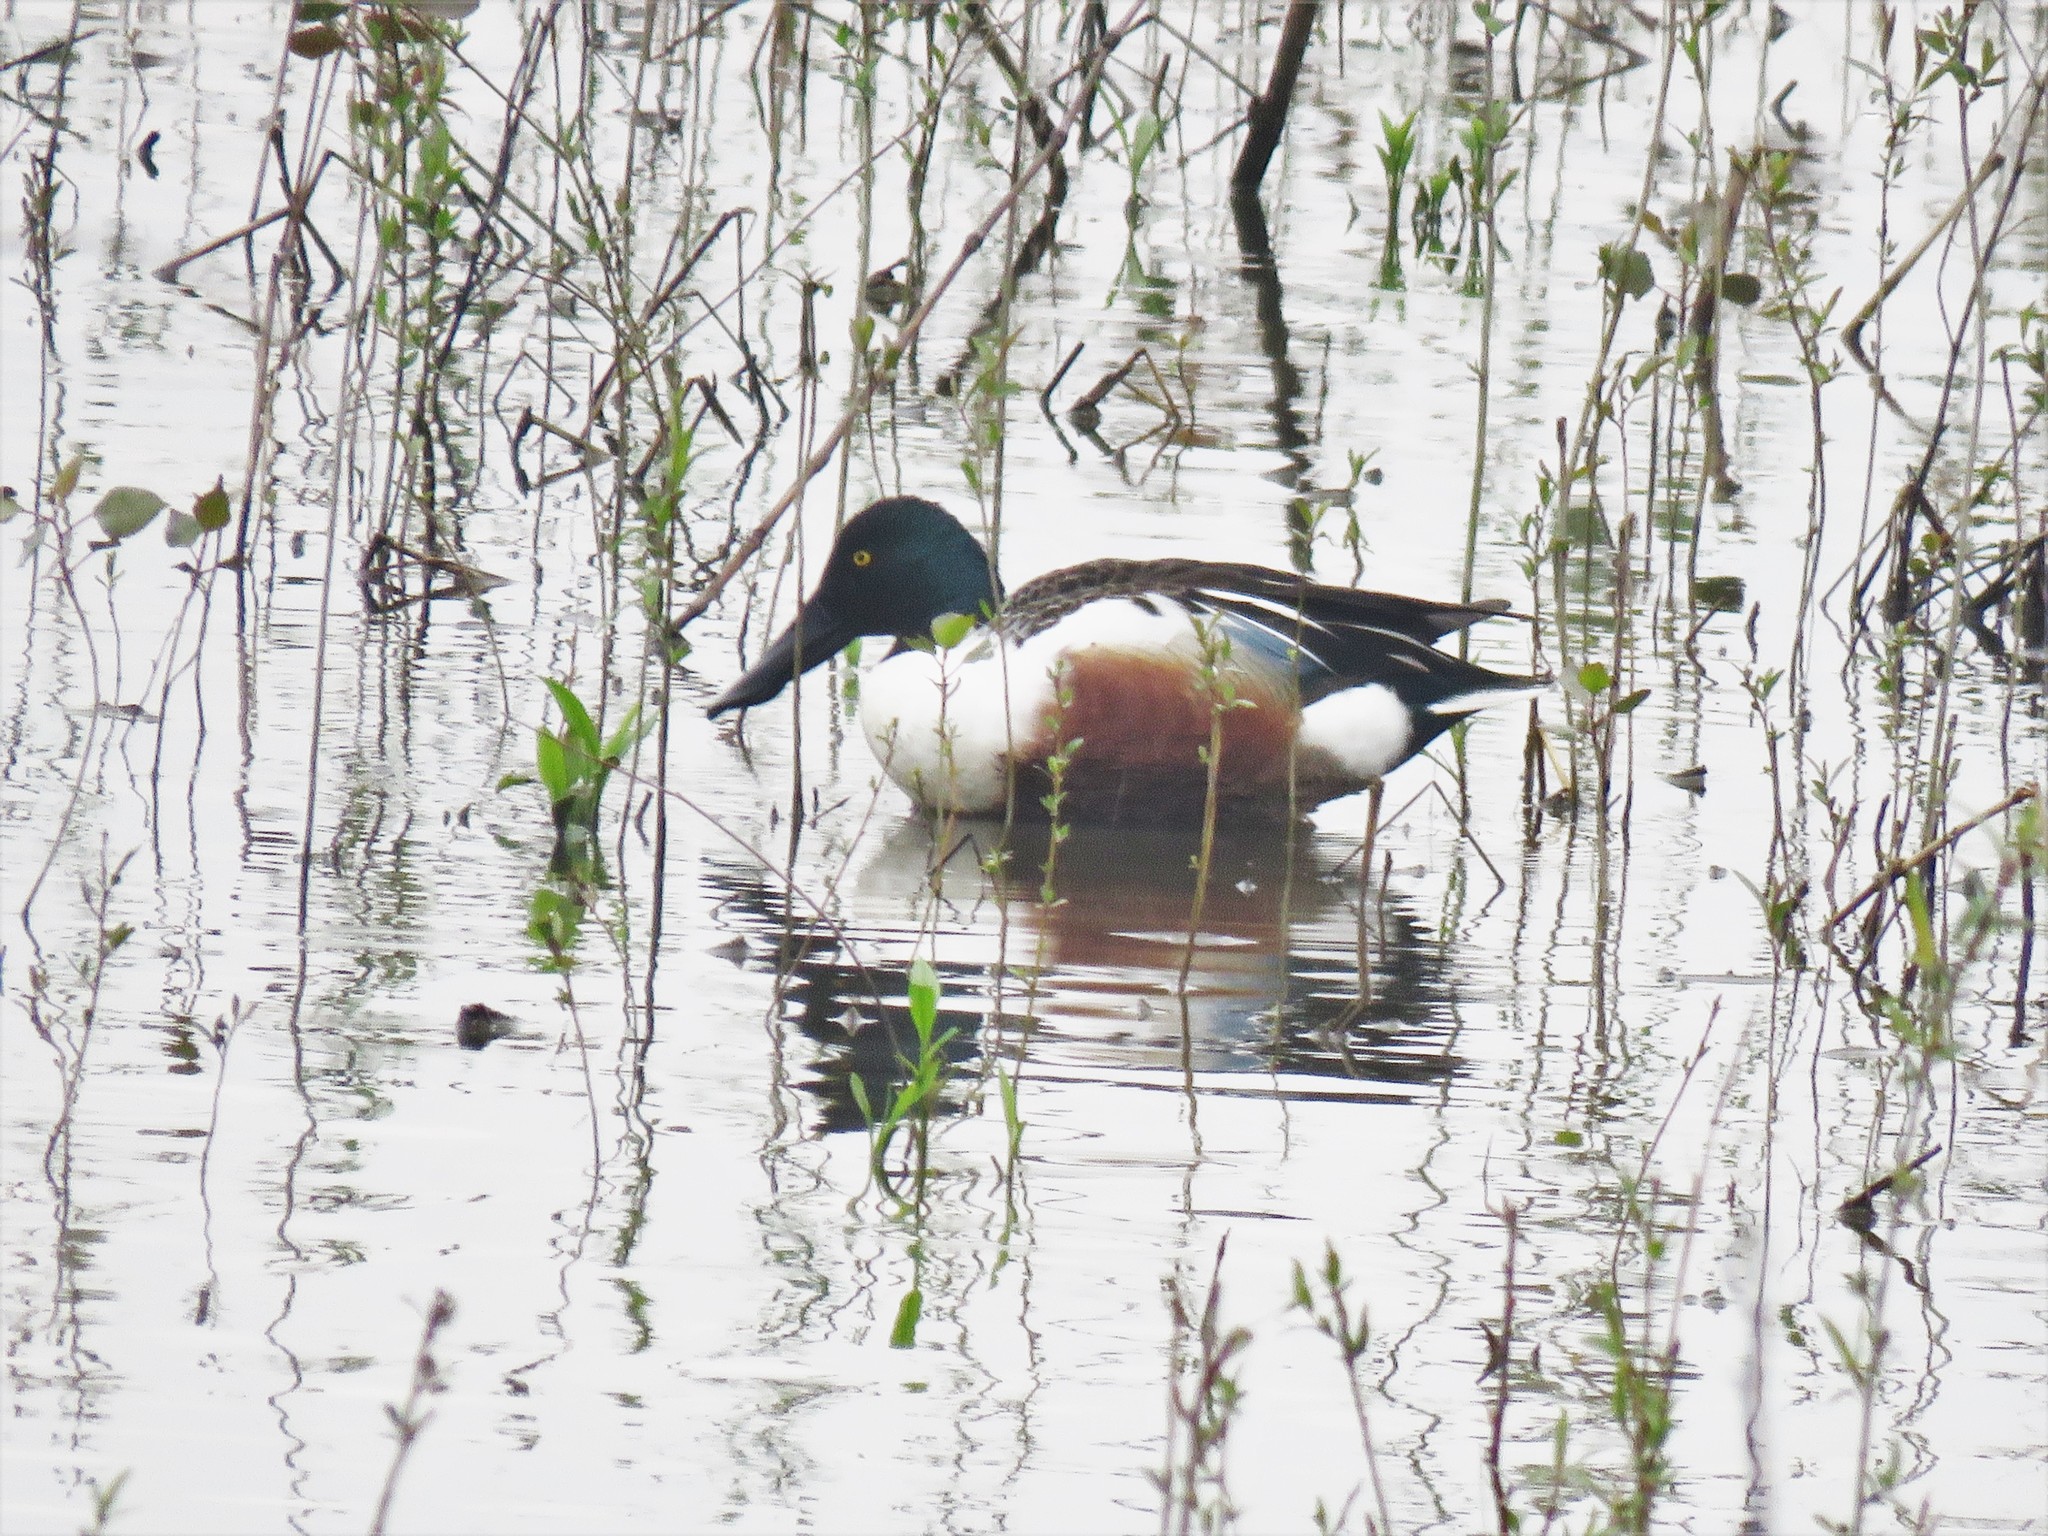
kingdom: Animalia
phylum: Chordata
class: Aves
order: Anseriformes
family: Anatidae
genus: Spatula
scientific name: Spatula clypeata
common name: Northern shoveler
